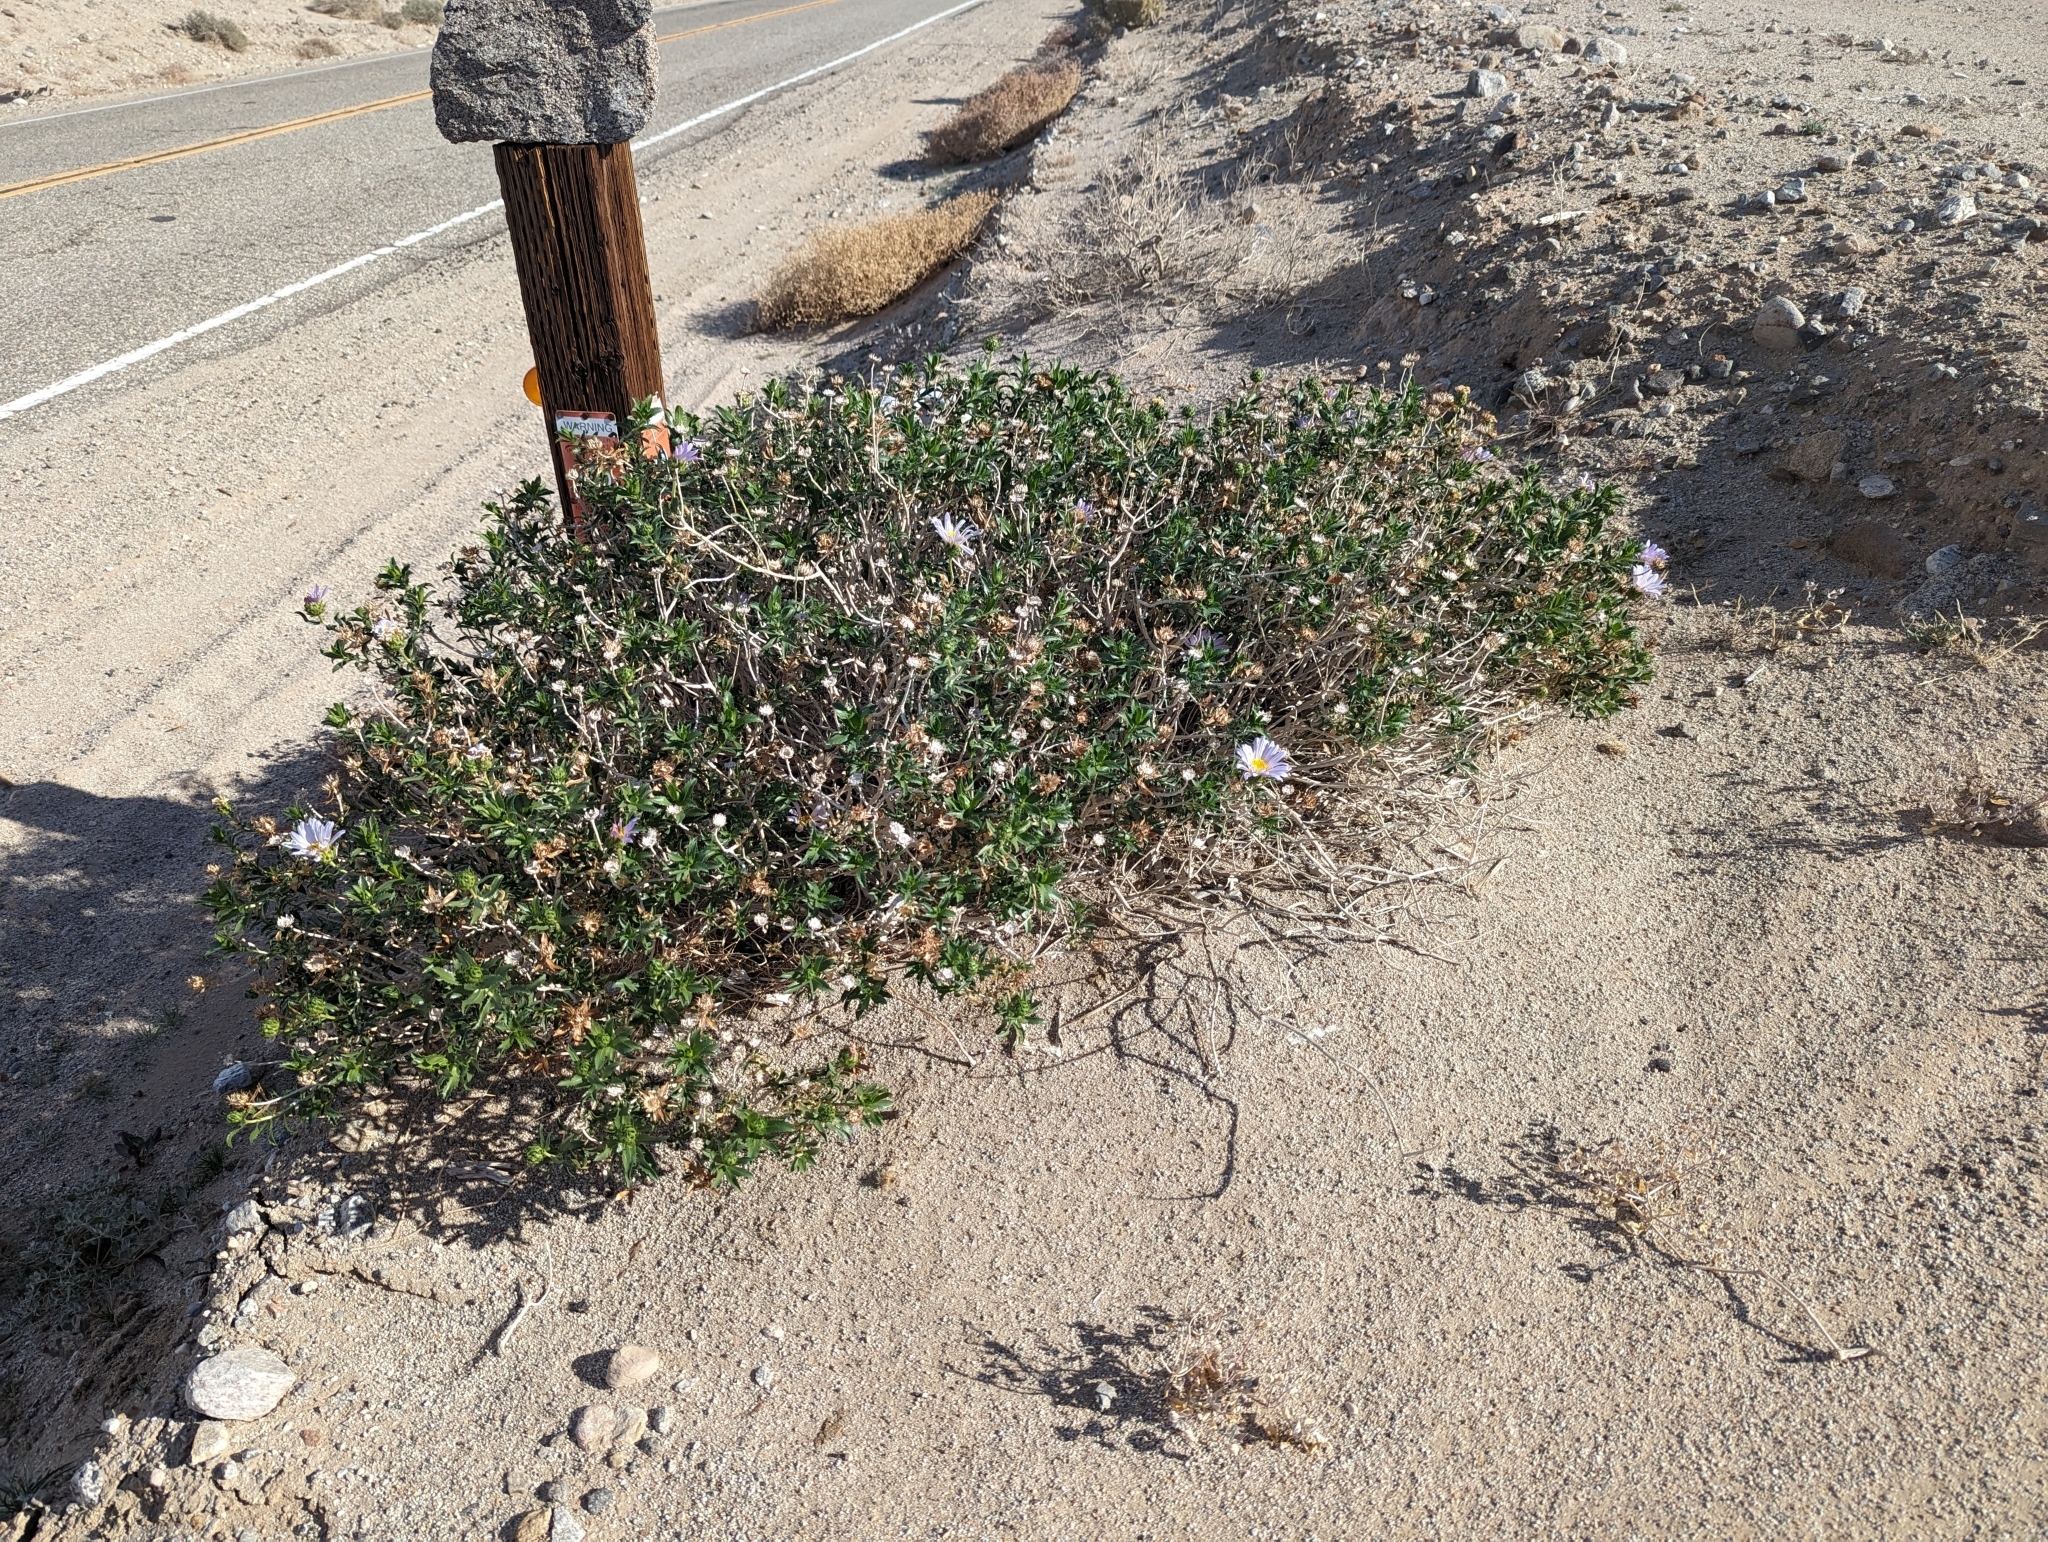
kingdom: Plantae
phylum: Tracheophyta
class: Magnoliopsida
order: Asterales
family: Asteraceae
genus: Xylorhiza
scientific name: Xylorhiza orcuttii
